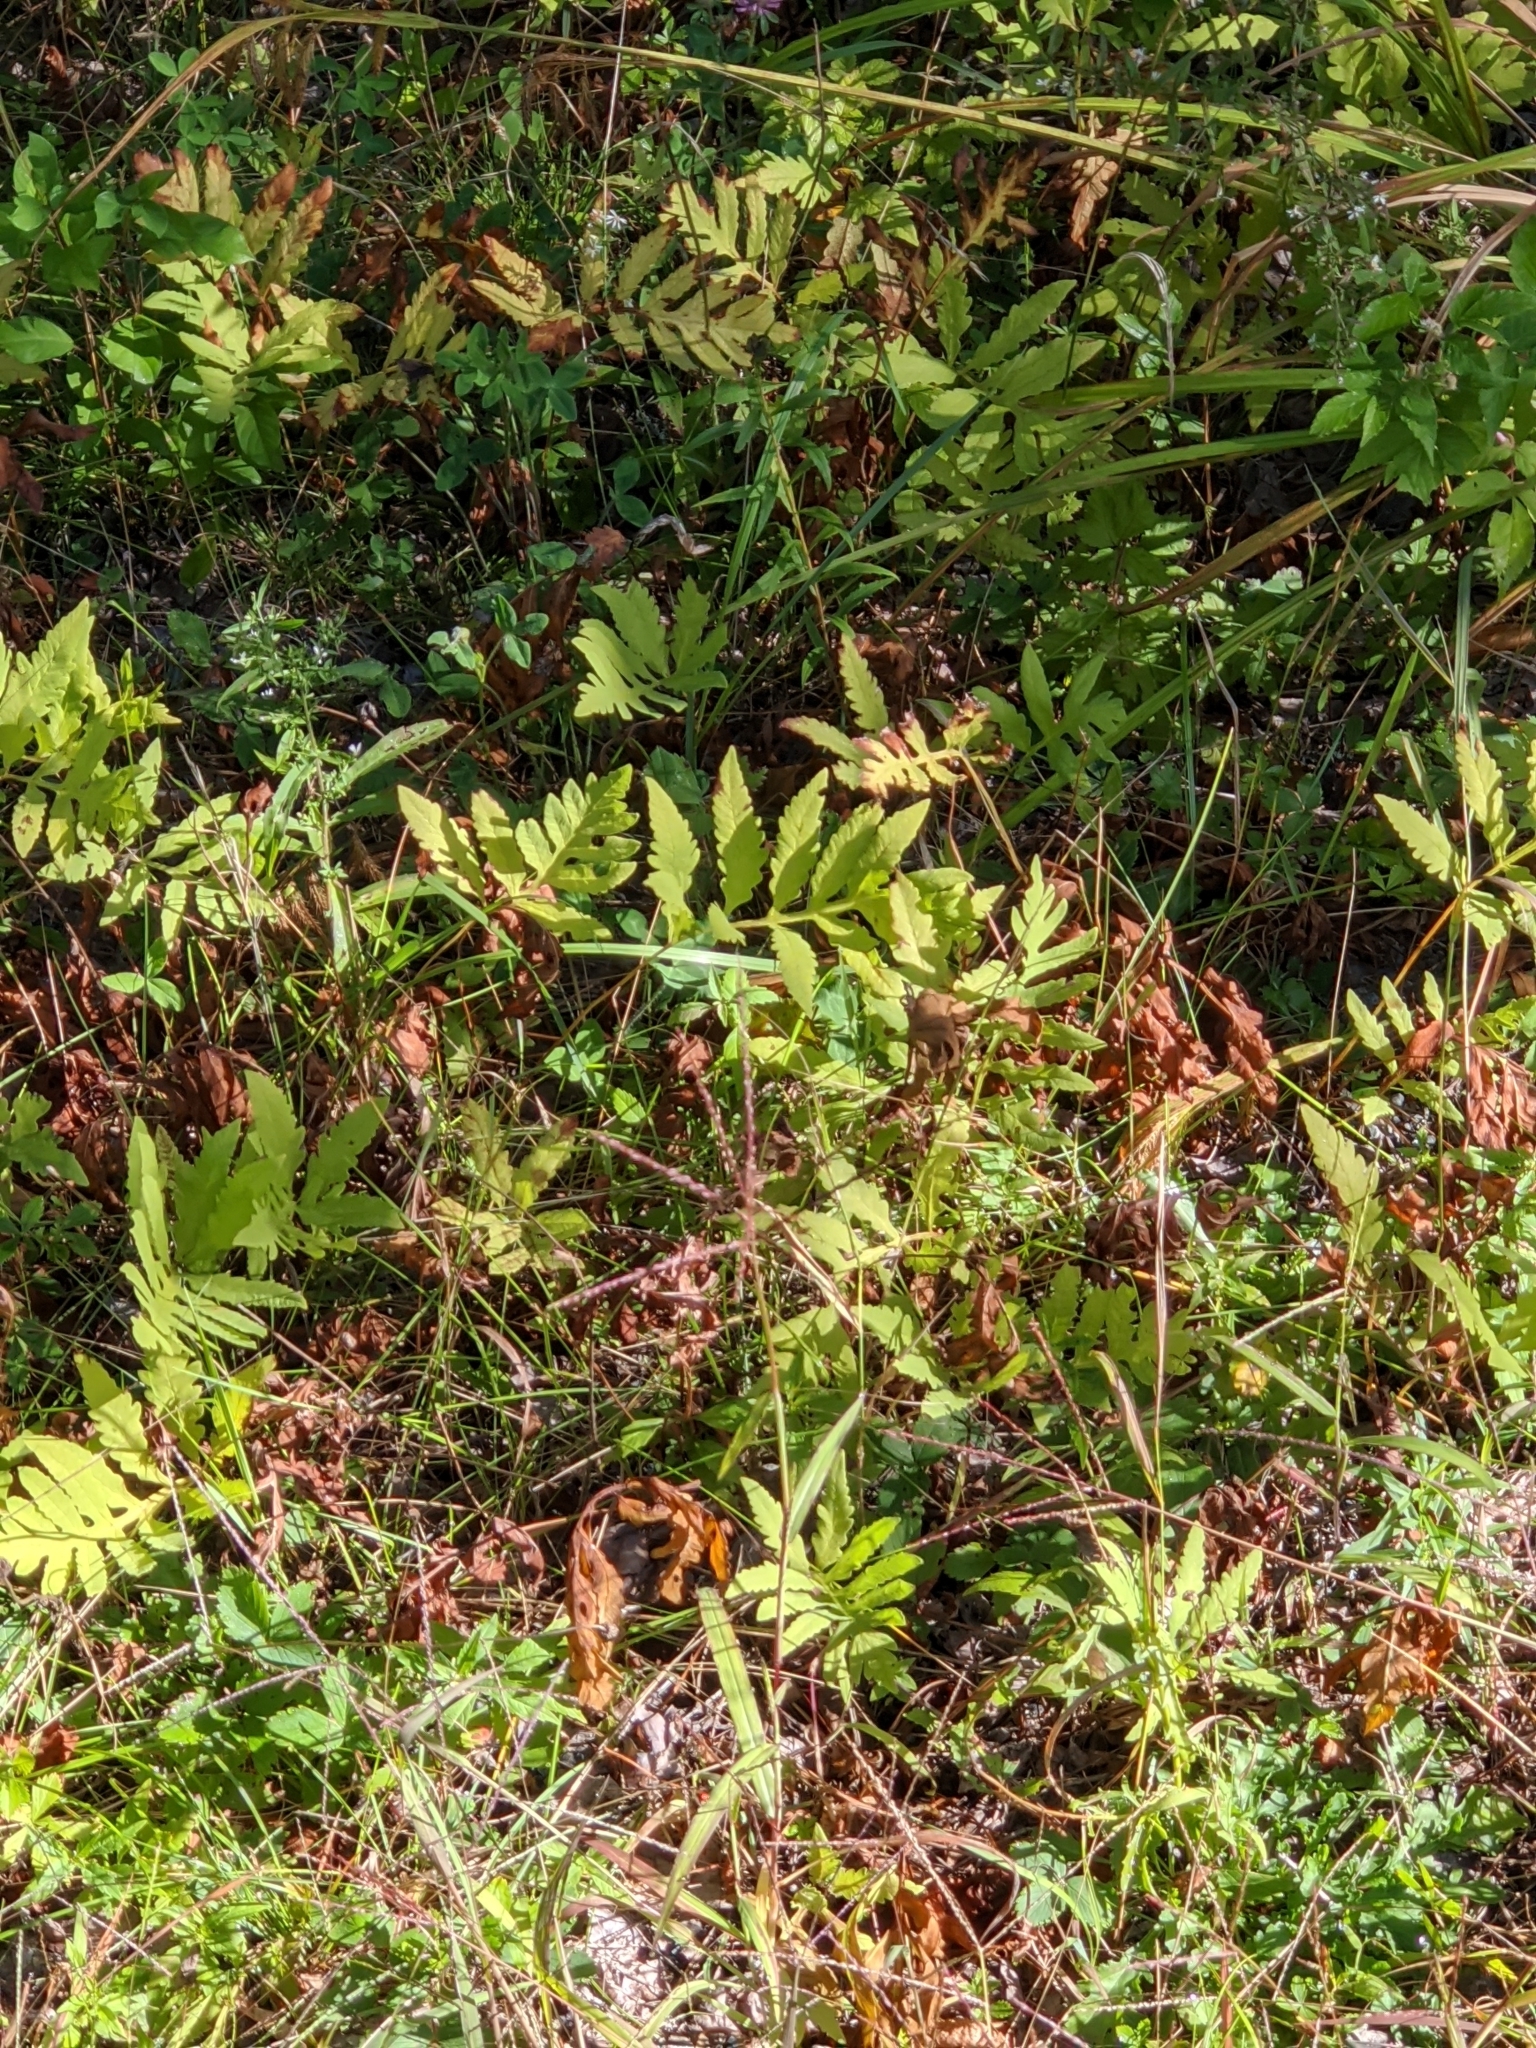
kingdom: Plantae
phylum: Tracheophyta
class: Polypodiopsida
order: Polypodiales
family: Onocleaceae
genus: Onoclea
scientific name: Onoclea sensibilis
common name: Sensitive fern
